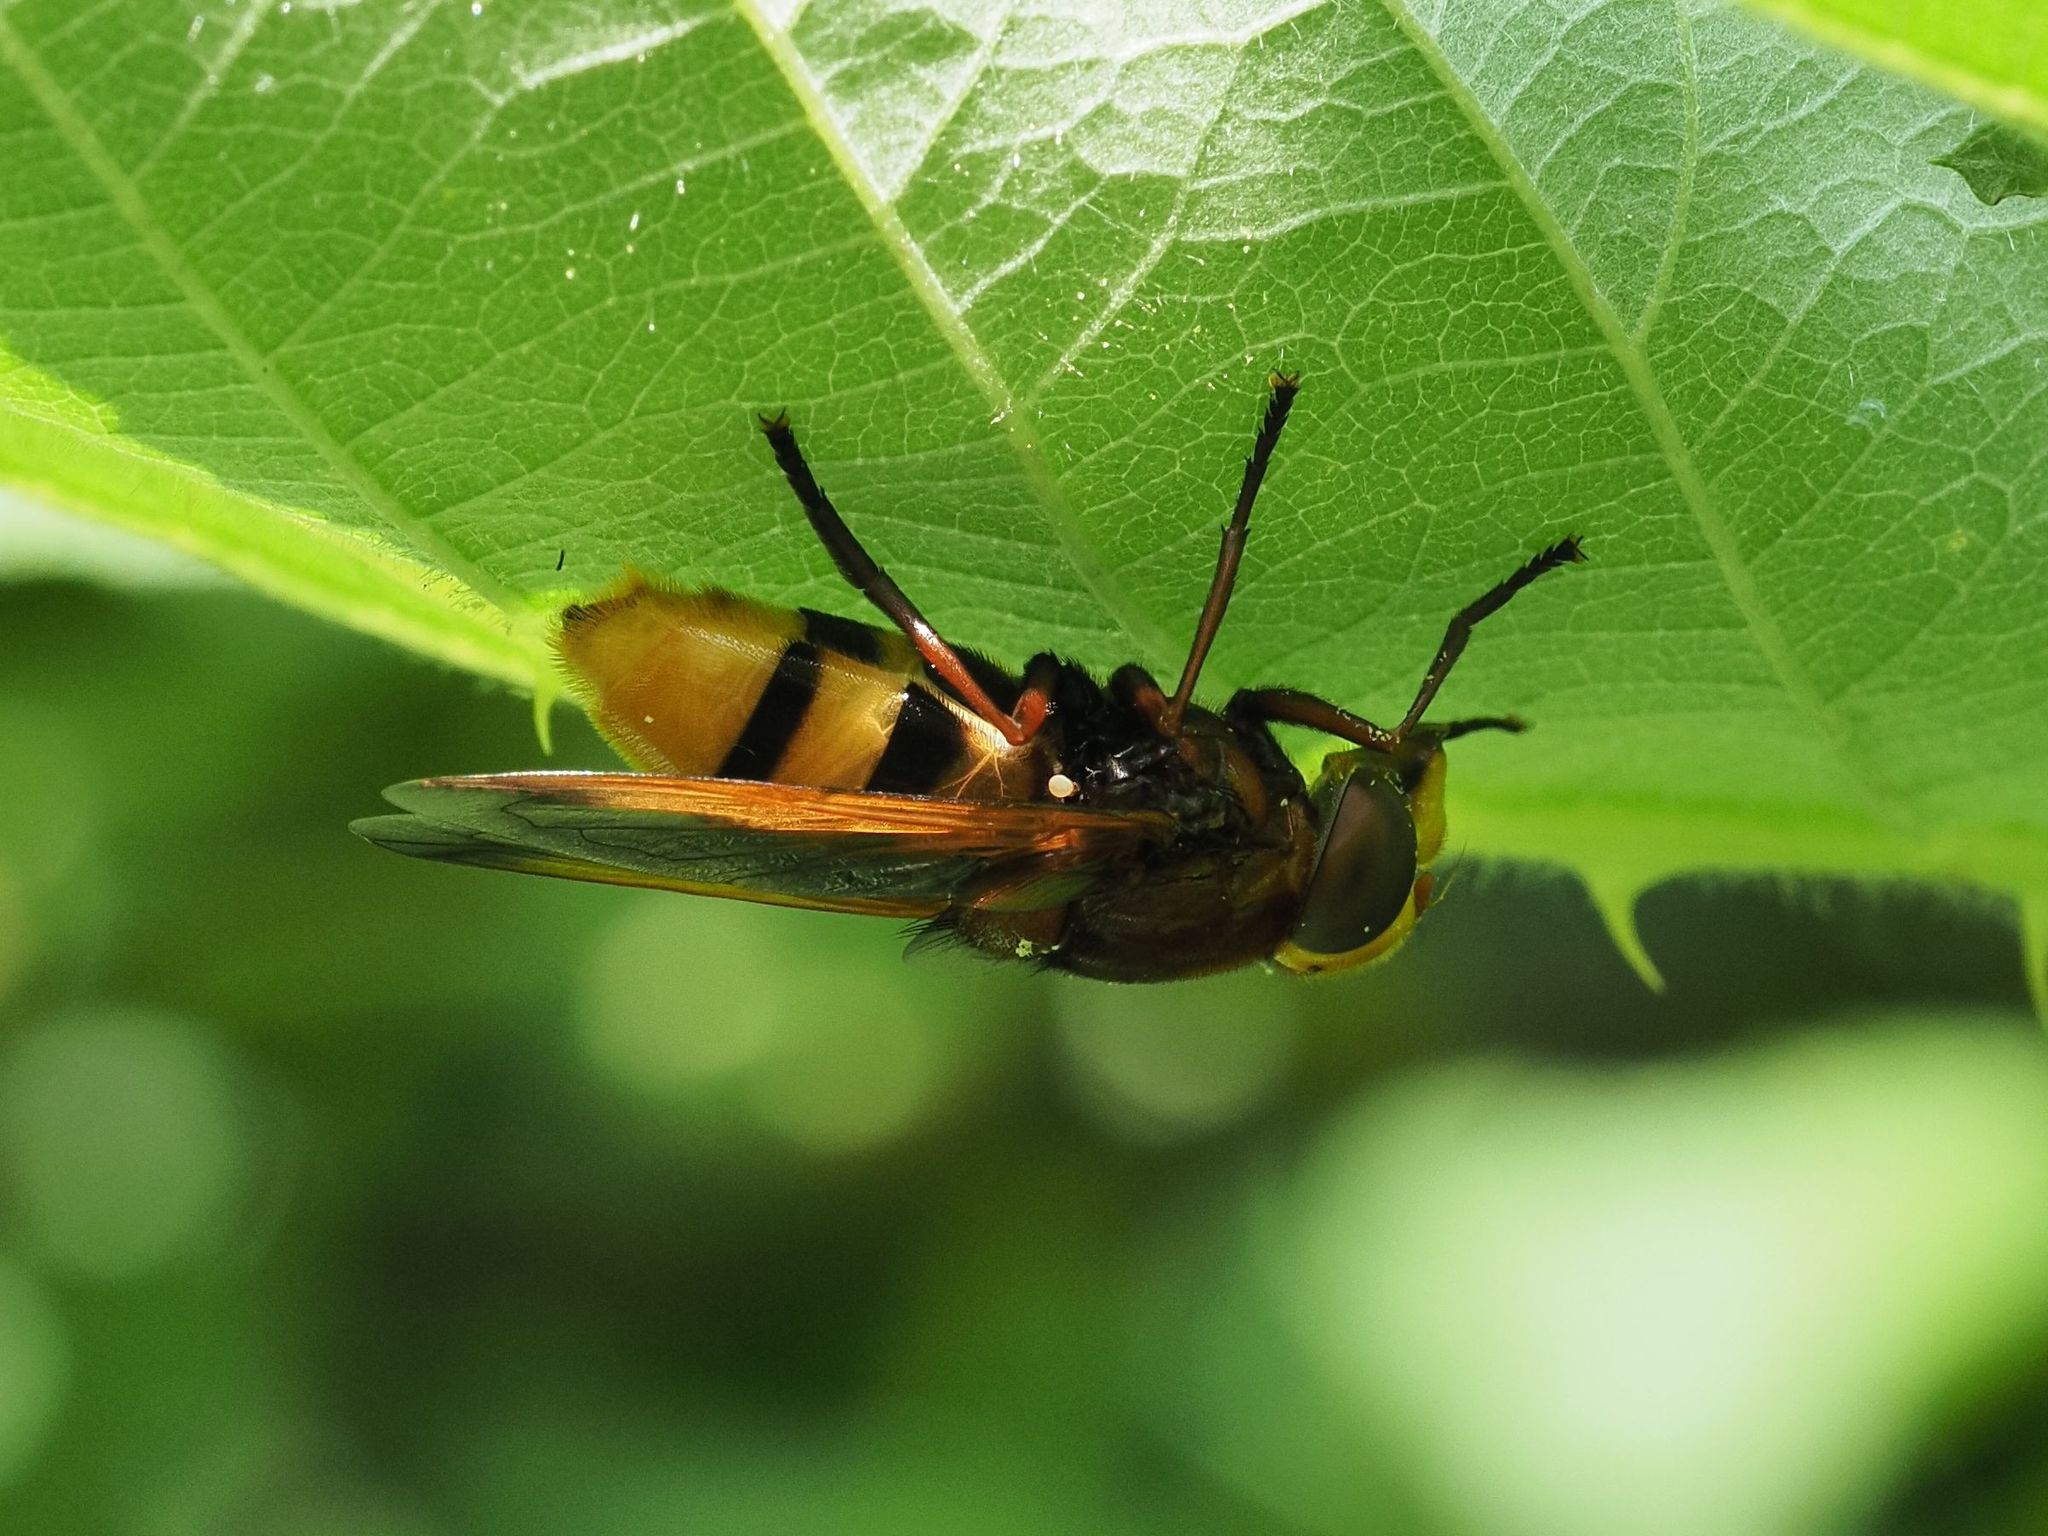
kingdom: Animalia
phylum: Arthropoda
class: Insecta
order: Diptera
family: Syrphidae
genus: Volucella
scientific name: Volucella zonaria
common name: Hornet hoverfly
